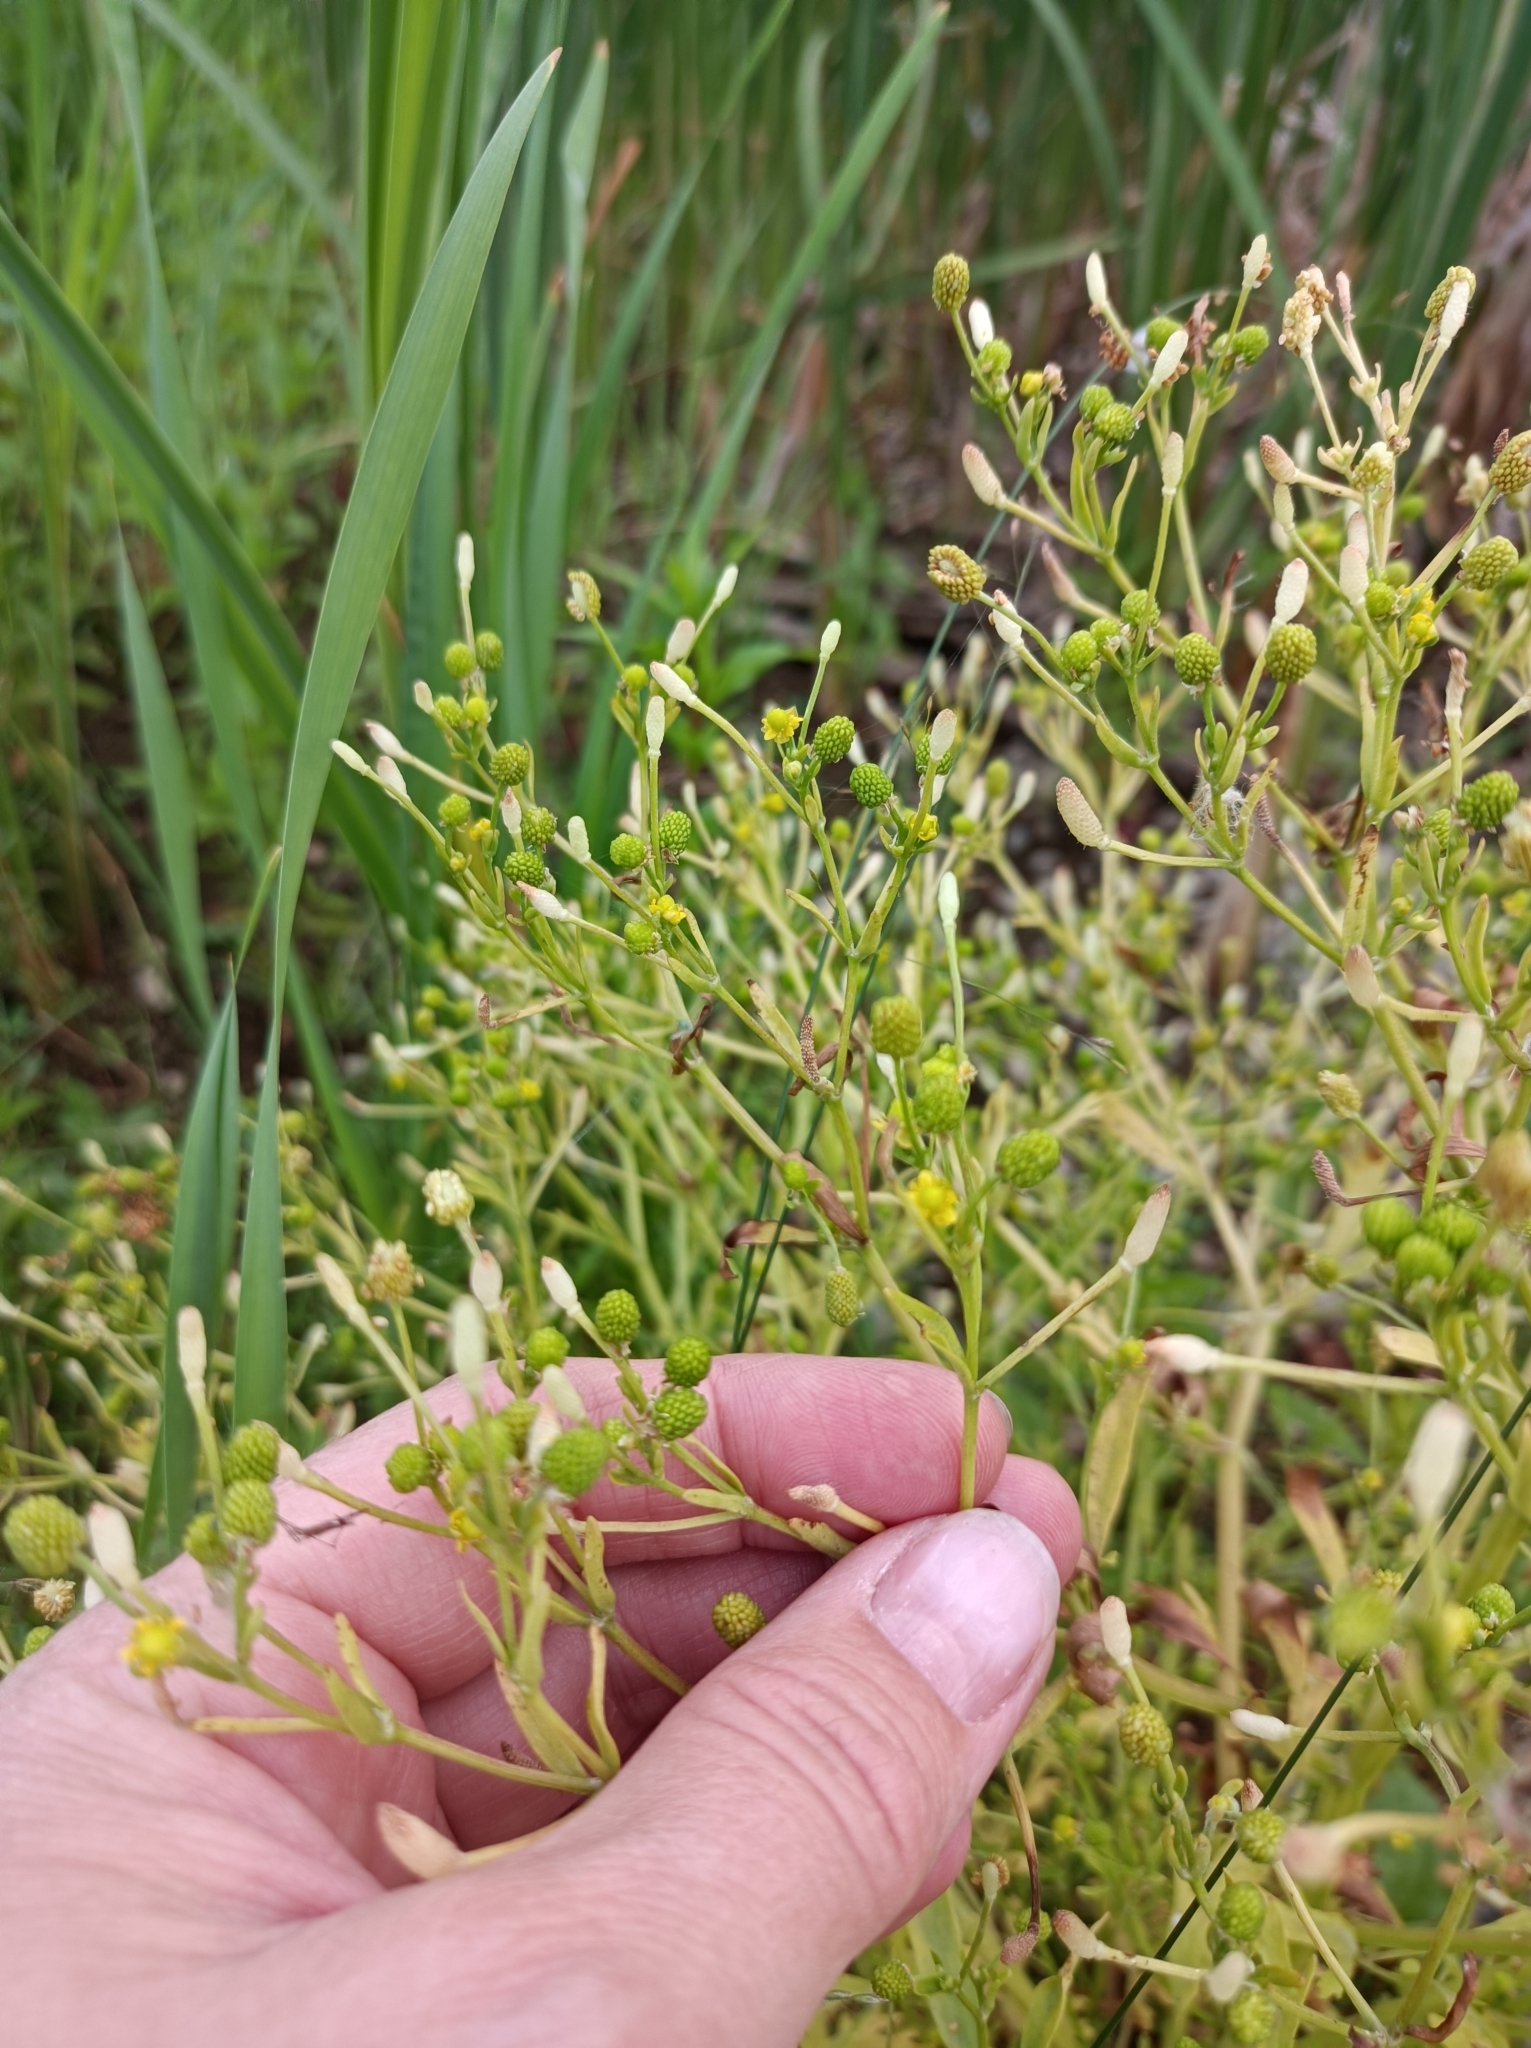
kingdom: Plantae
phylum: Tracheophyta
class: Magnoliopsida
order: Ranunculales
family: Ranunculaceae
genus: Ranunculus
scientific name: Ranunculus sceleratus
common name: Celery-leaved buttercup
